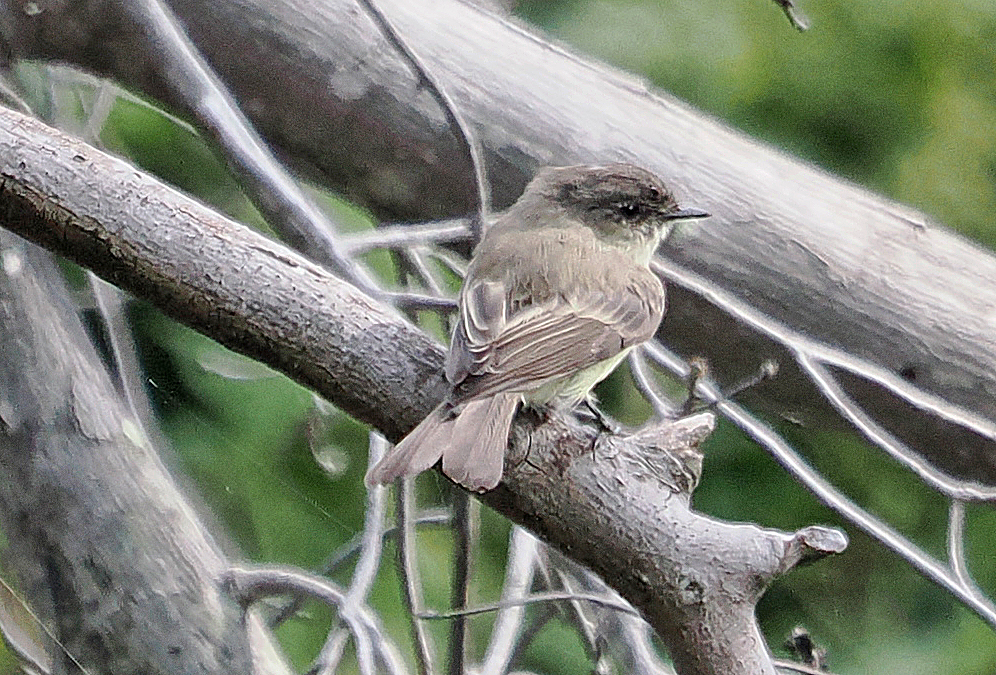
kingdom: Animalia
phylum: Chordata
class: Aves
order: Passeriformes
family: Tyrannidae
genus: Sayornis
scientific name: Sayornis phoebe
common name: Eastern phoebe
